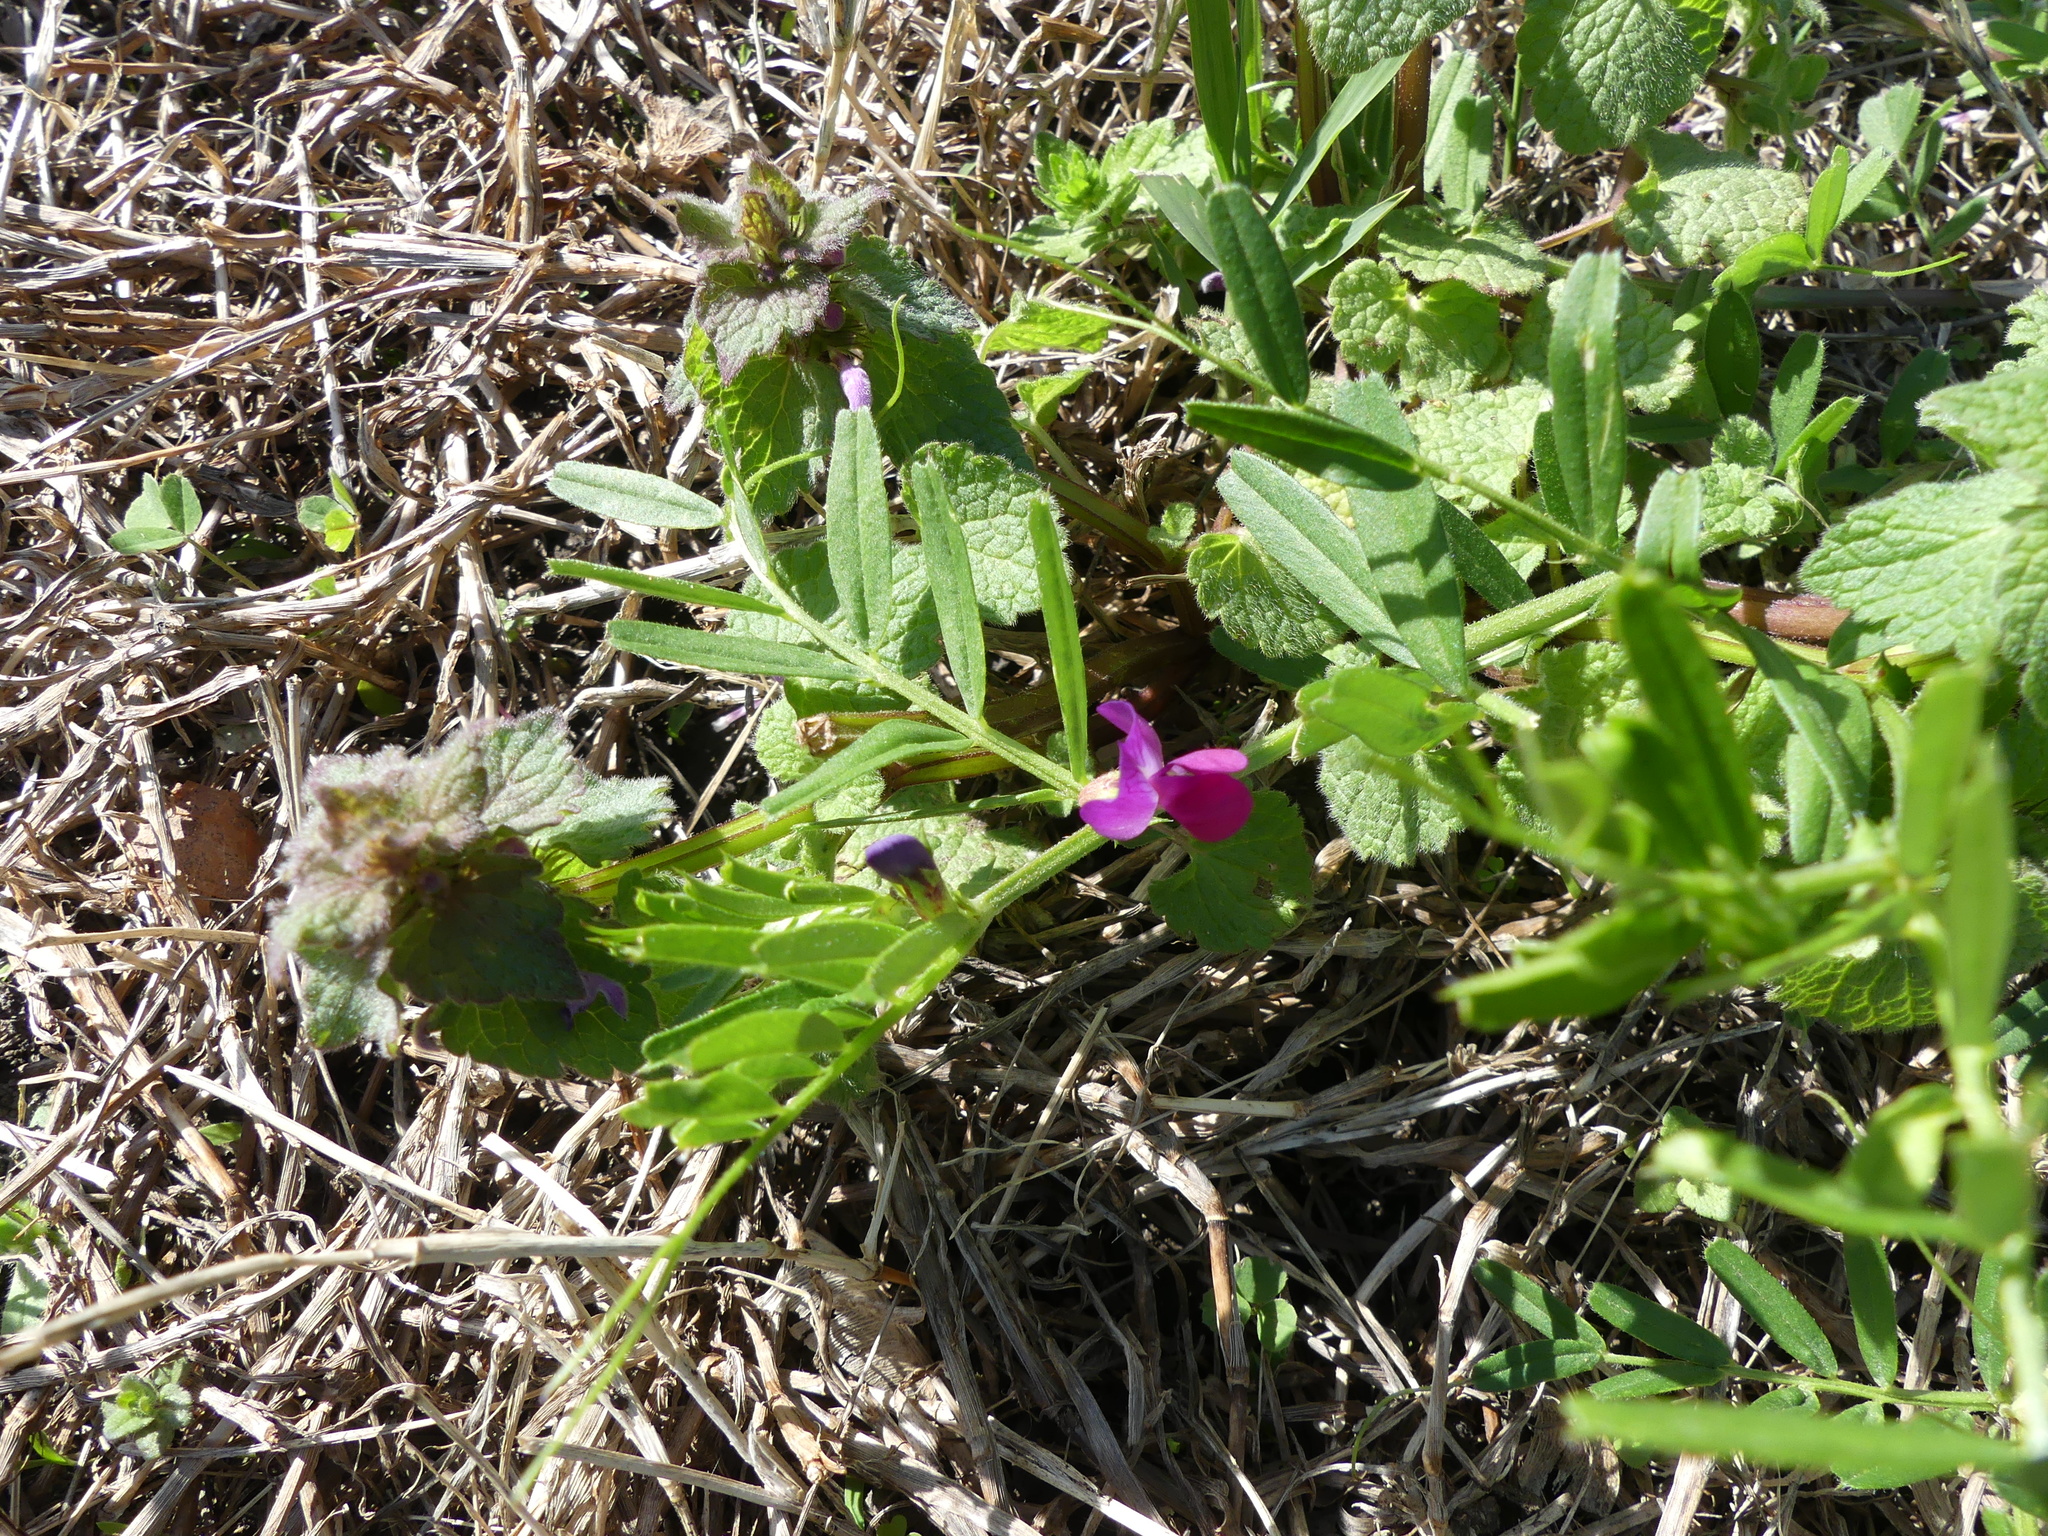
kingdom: Plantae
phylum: Tracheophyta
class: Magnoliopsida
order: Fabales
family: Fabaceae
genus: Vicia
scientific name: Vicia sativa
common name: Garden vetch
